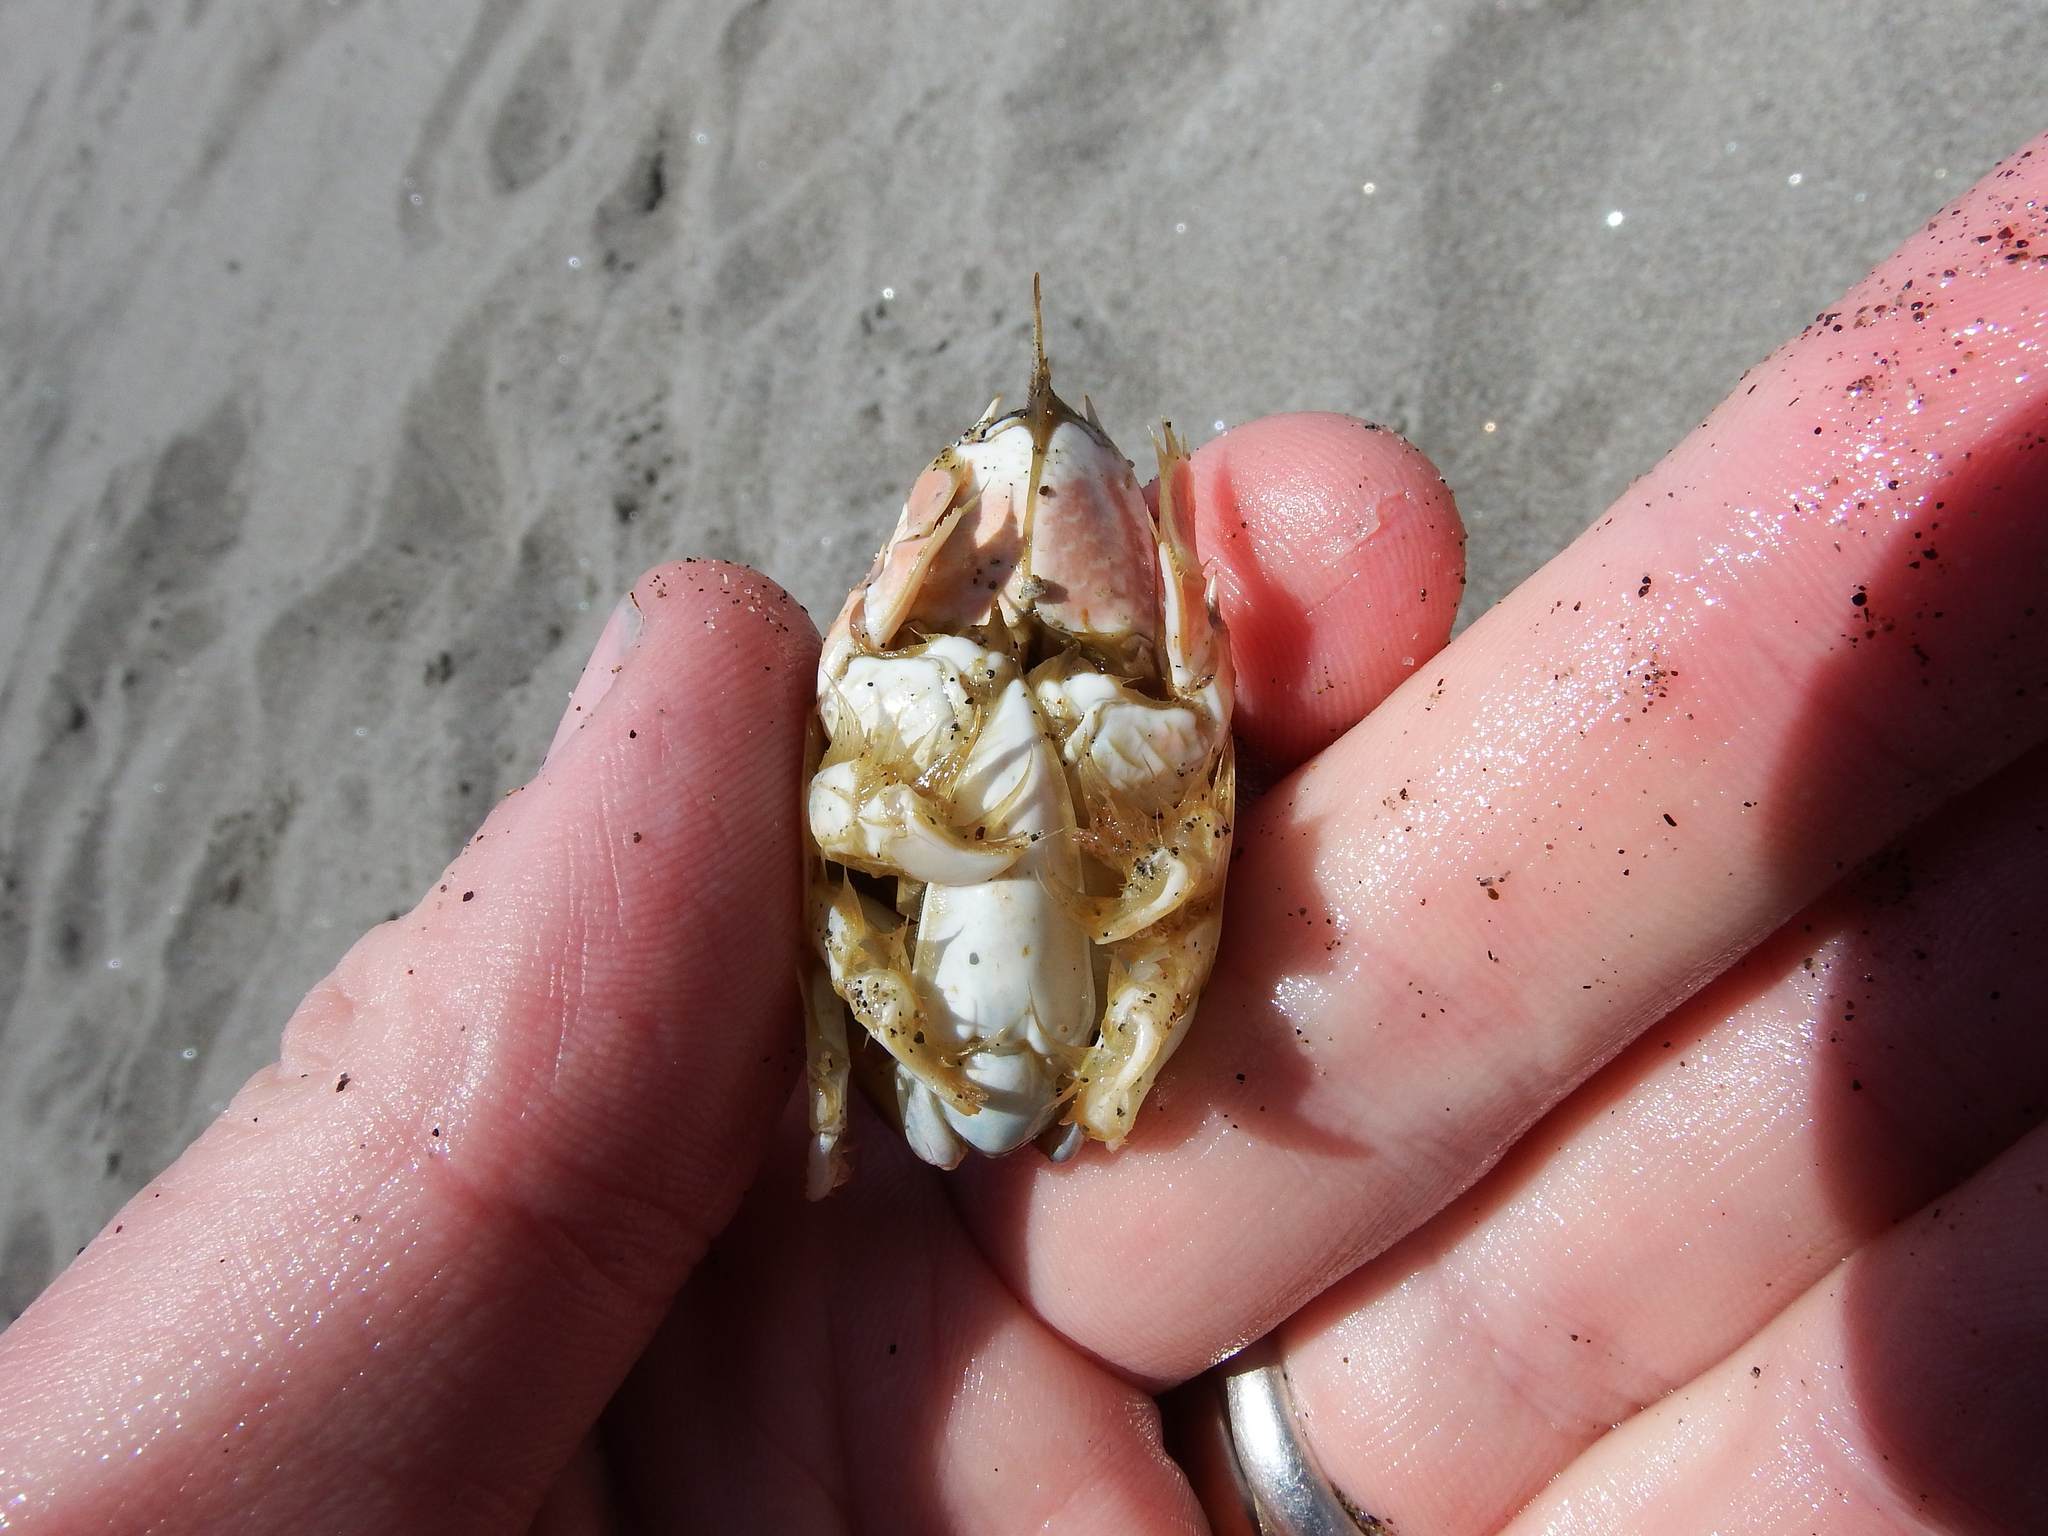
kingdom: Animalia
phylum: Arthropoda
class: Malacostraca
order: Decapoda
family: Hippidae
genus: Emerita
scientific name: Emerita analoga
